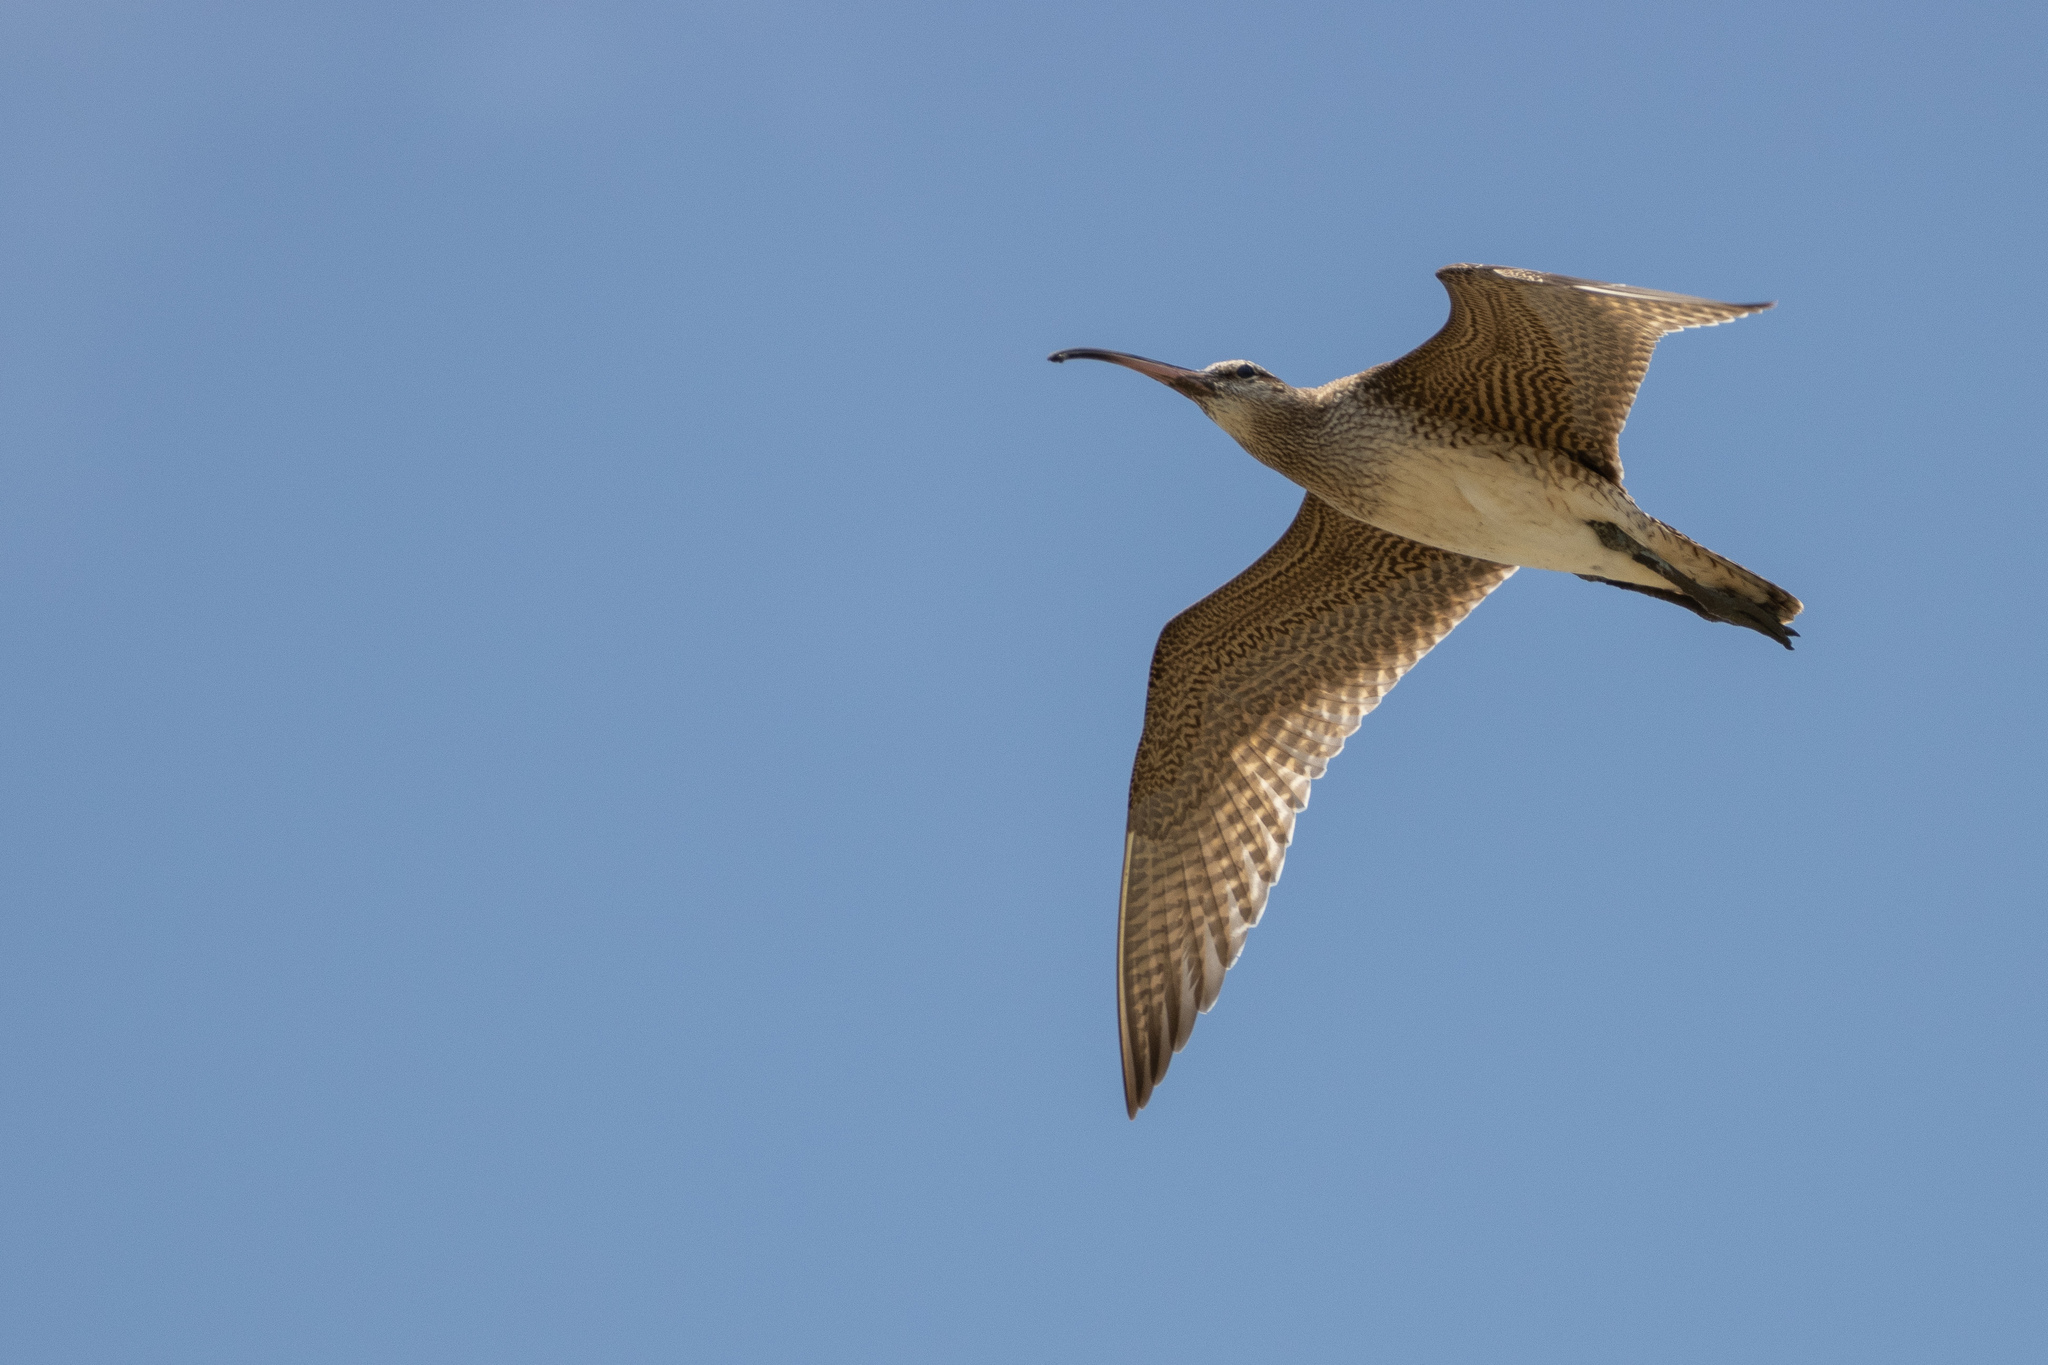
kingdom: Animalia
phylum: Chordata
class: Aves
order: Charadriiformes
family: Scolopacidae
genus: Numenius
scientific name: Numenius hudsonicus
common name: Hudsonian whimbrel
